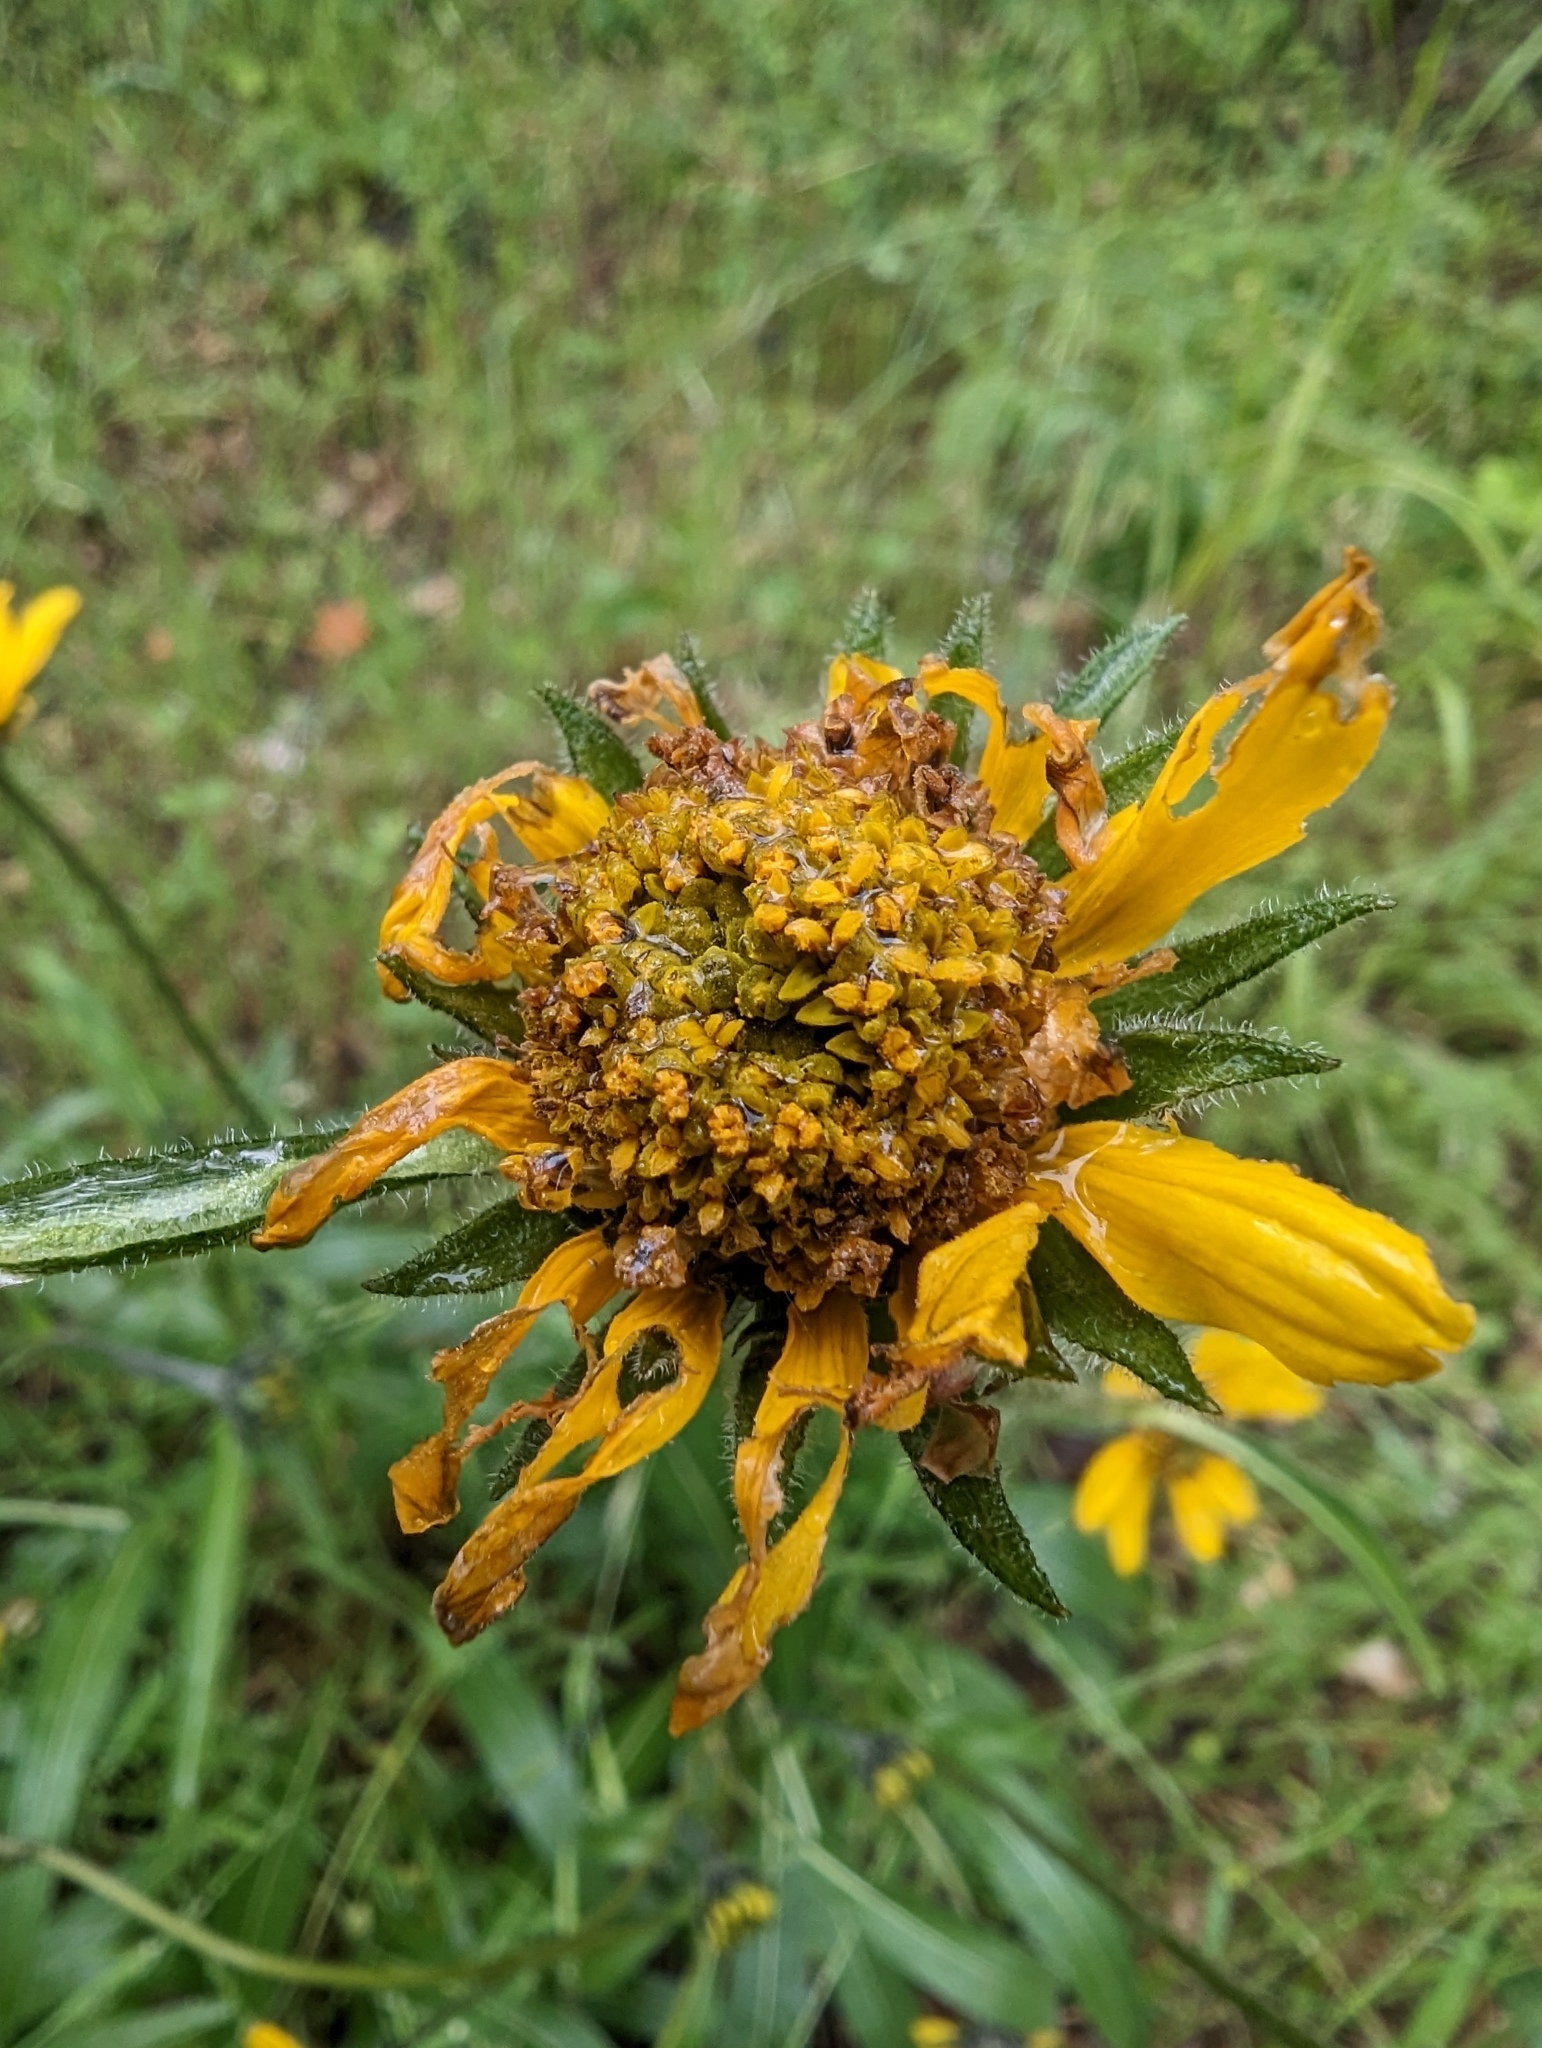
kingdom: Plantae
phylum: Tracheophyta
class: Magnoliopsida
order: Asterales
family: Asteraceae
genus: Helianthella
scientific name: Helianthella californica
